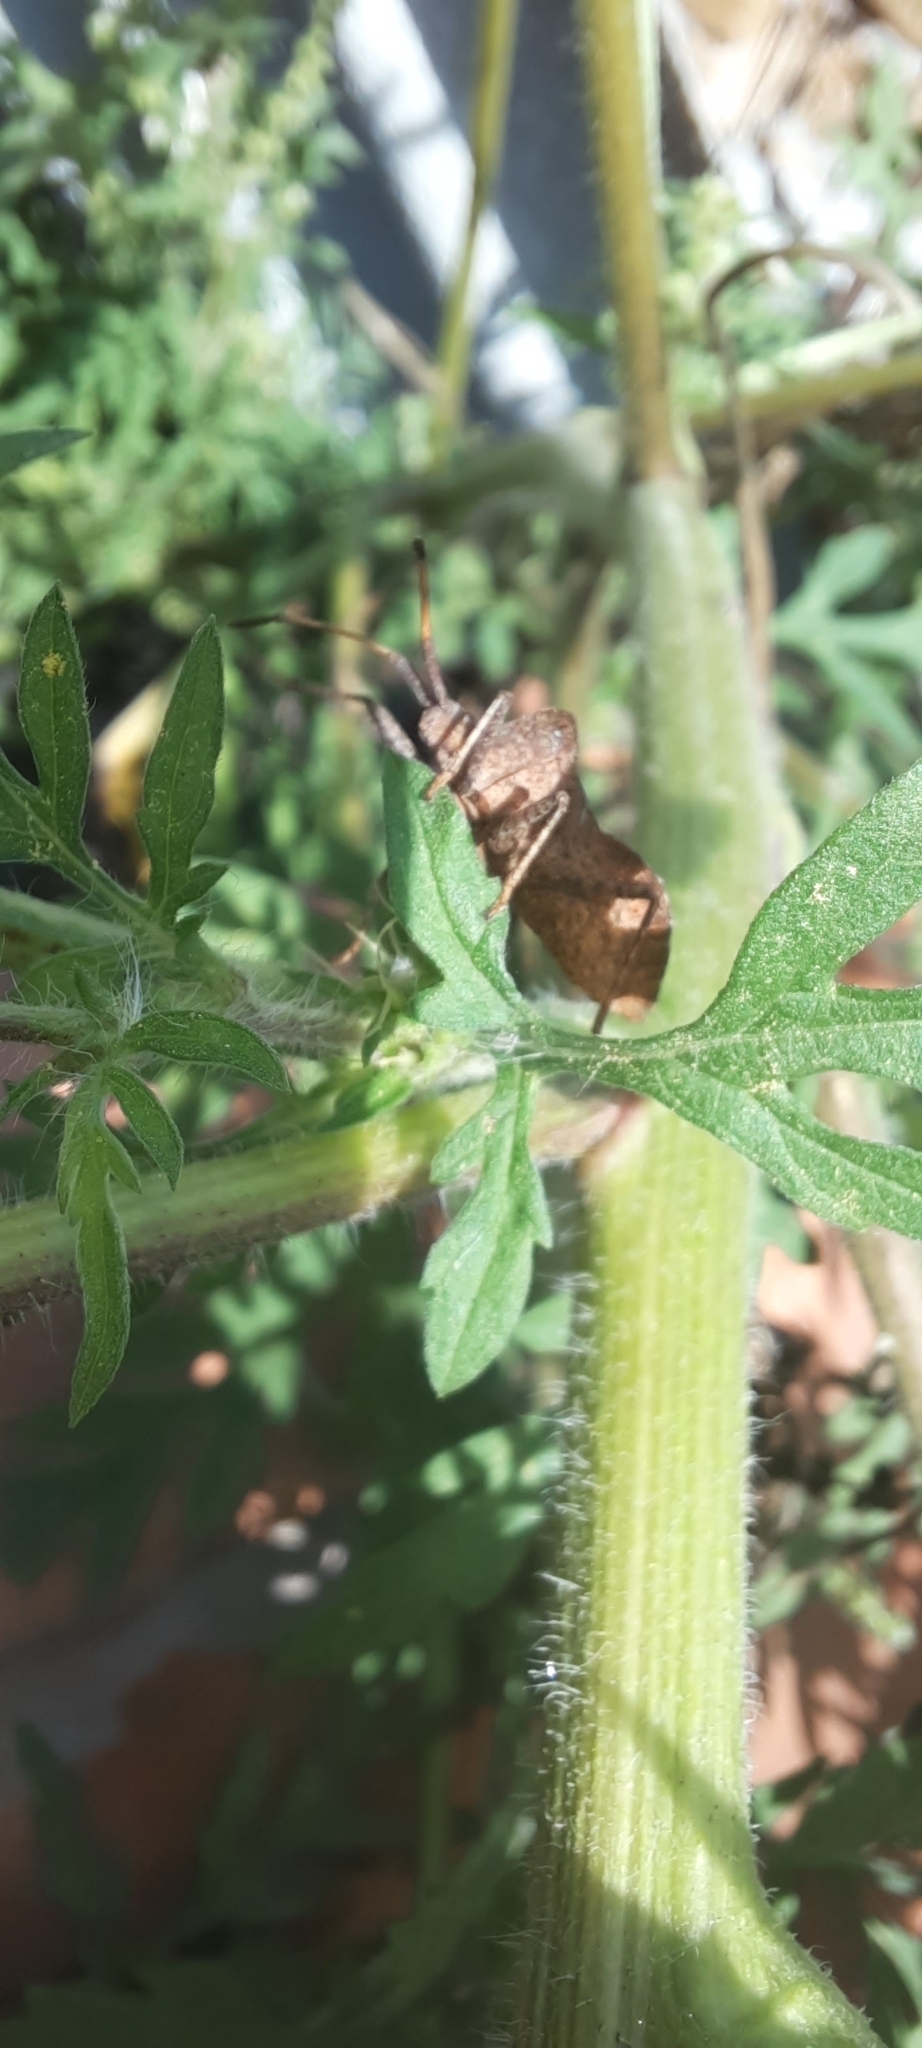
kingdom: Animalia
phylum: Arthropoda
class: Insecta
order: Hemiptera
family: Coreidae
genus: Coreus
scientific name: Coreus marginatus
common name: Dock bug
